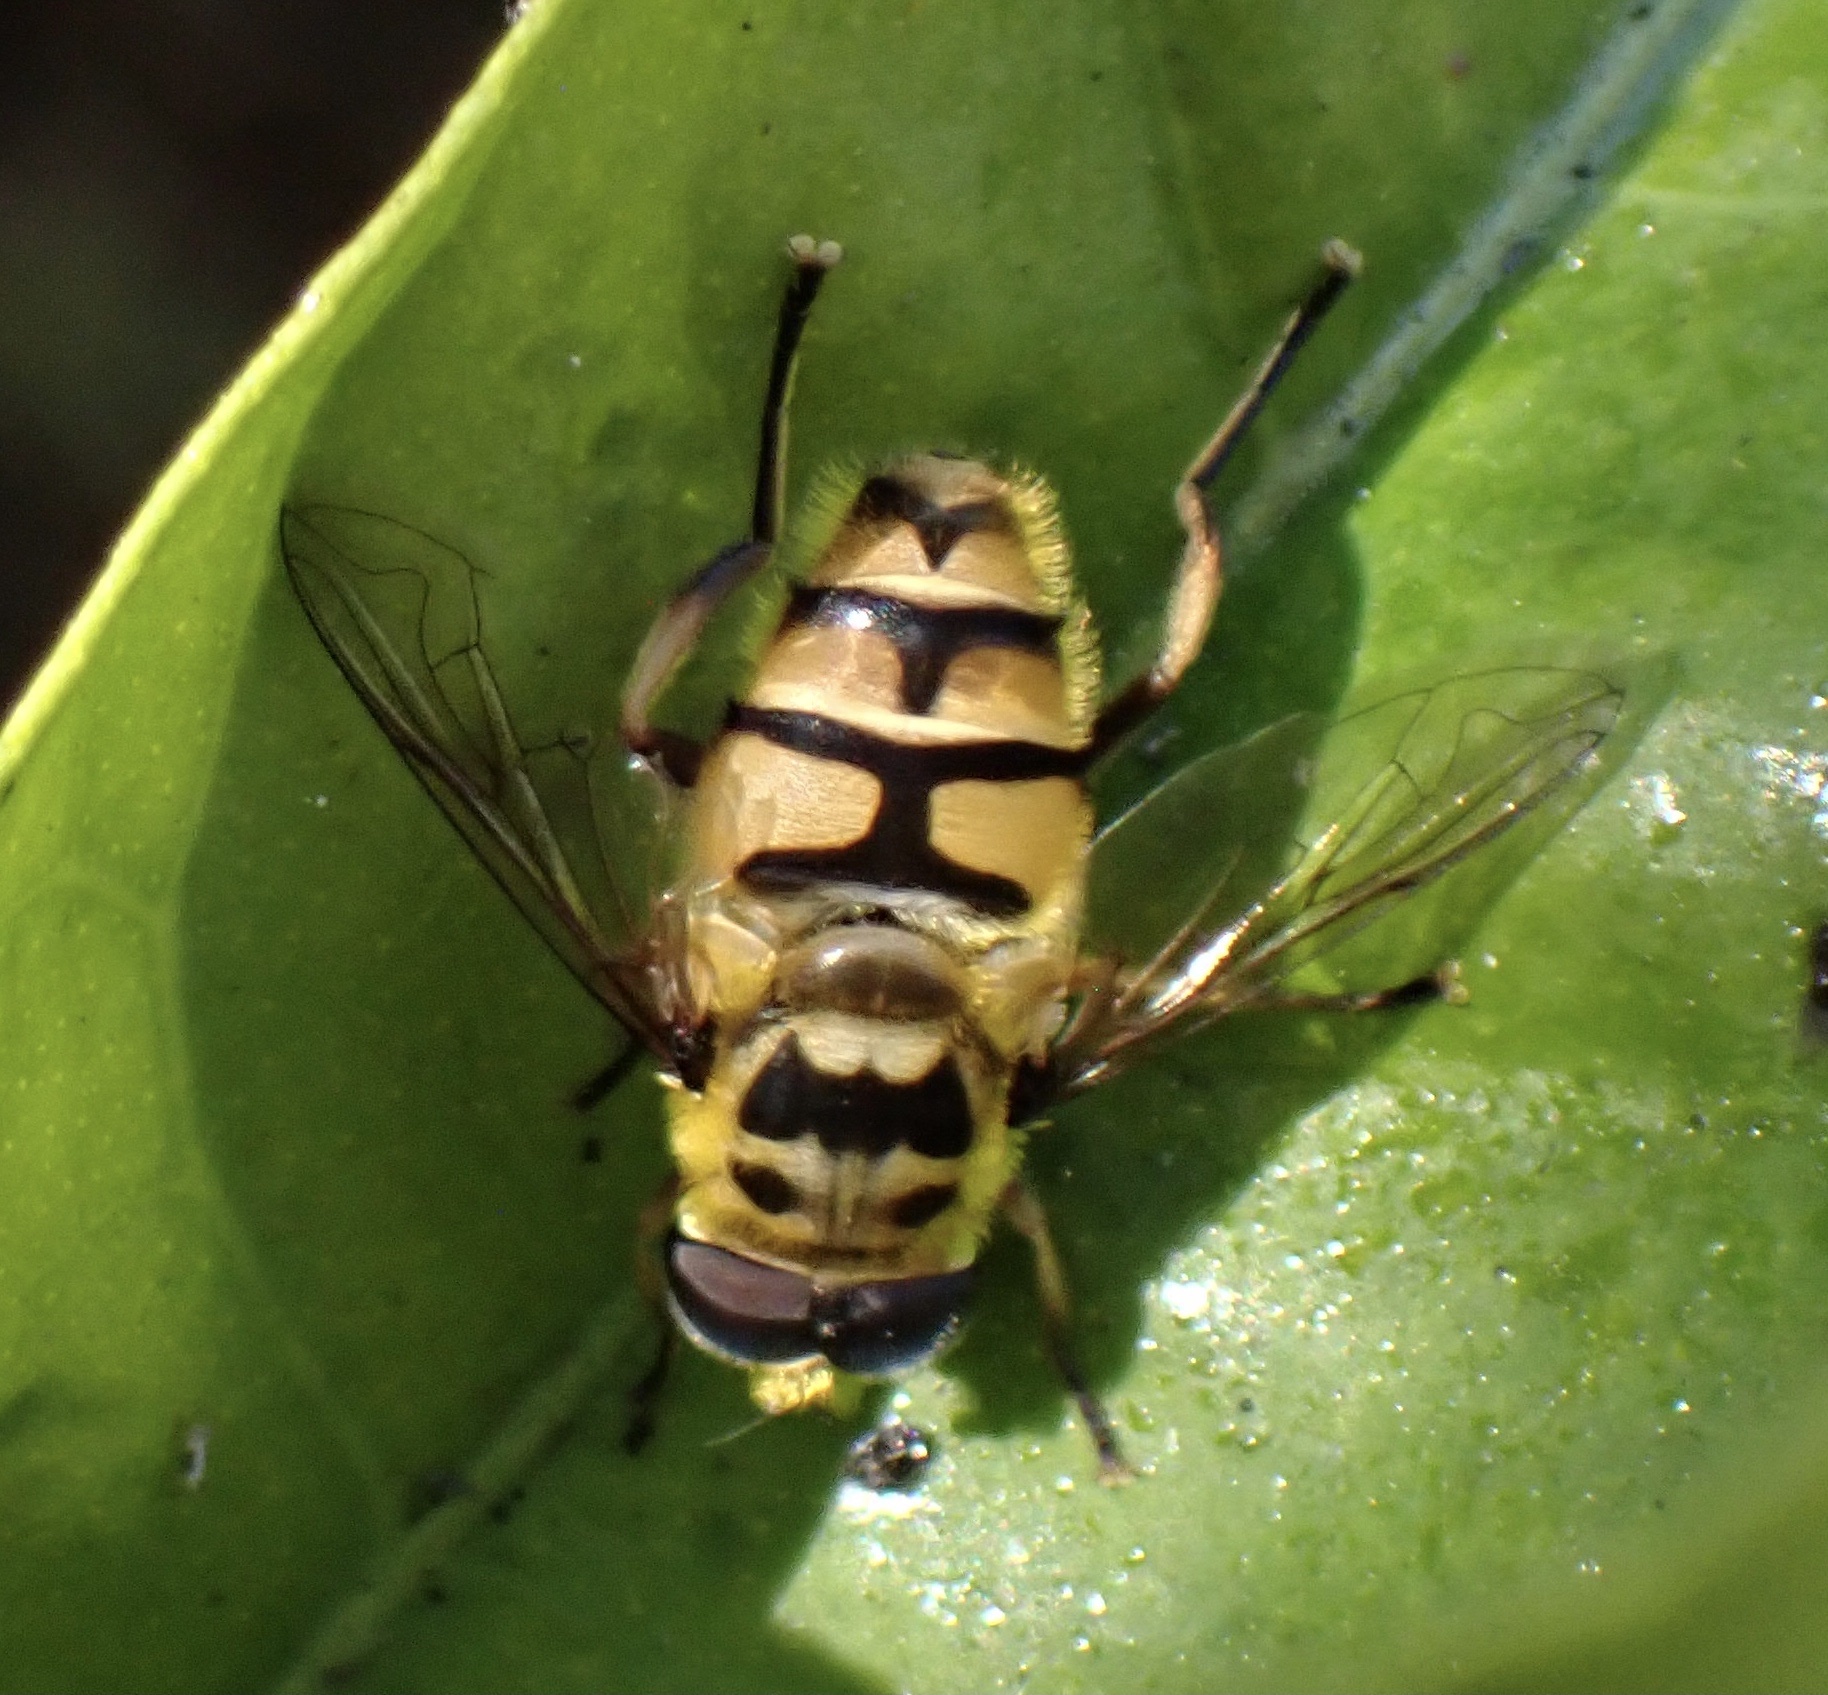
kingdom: Animalia
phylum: Arthropoda
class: Insecta
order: Diptera
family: Syrphidae
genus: Myathropa
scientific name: Myathropa florea
